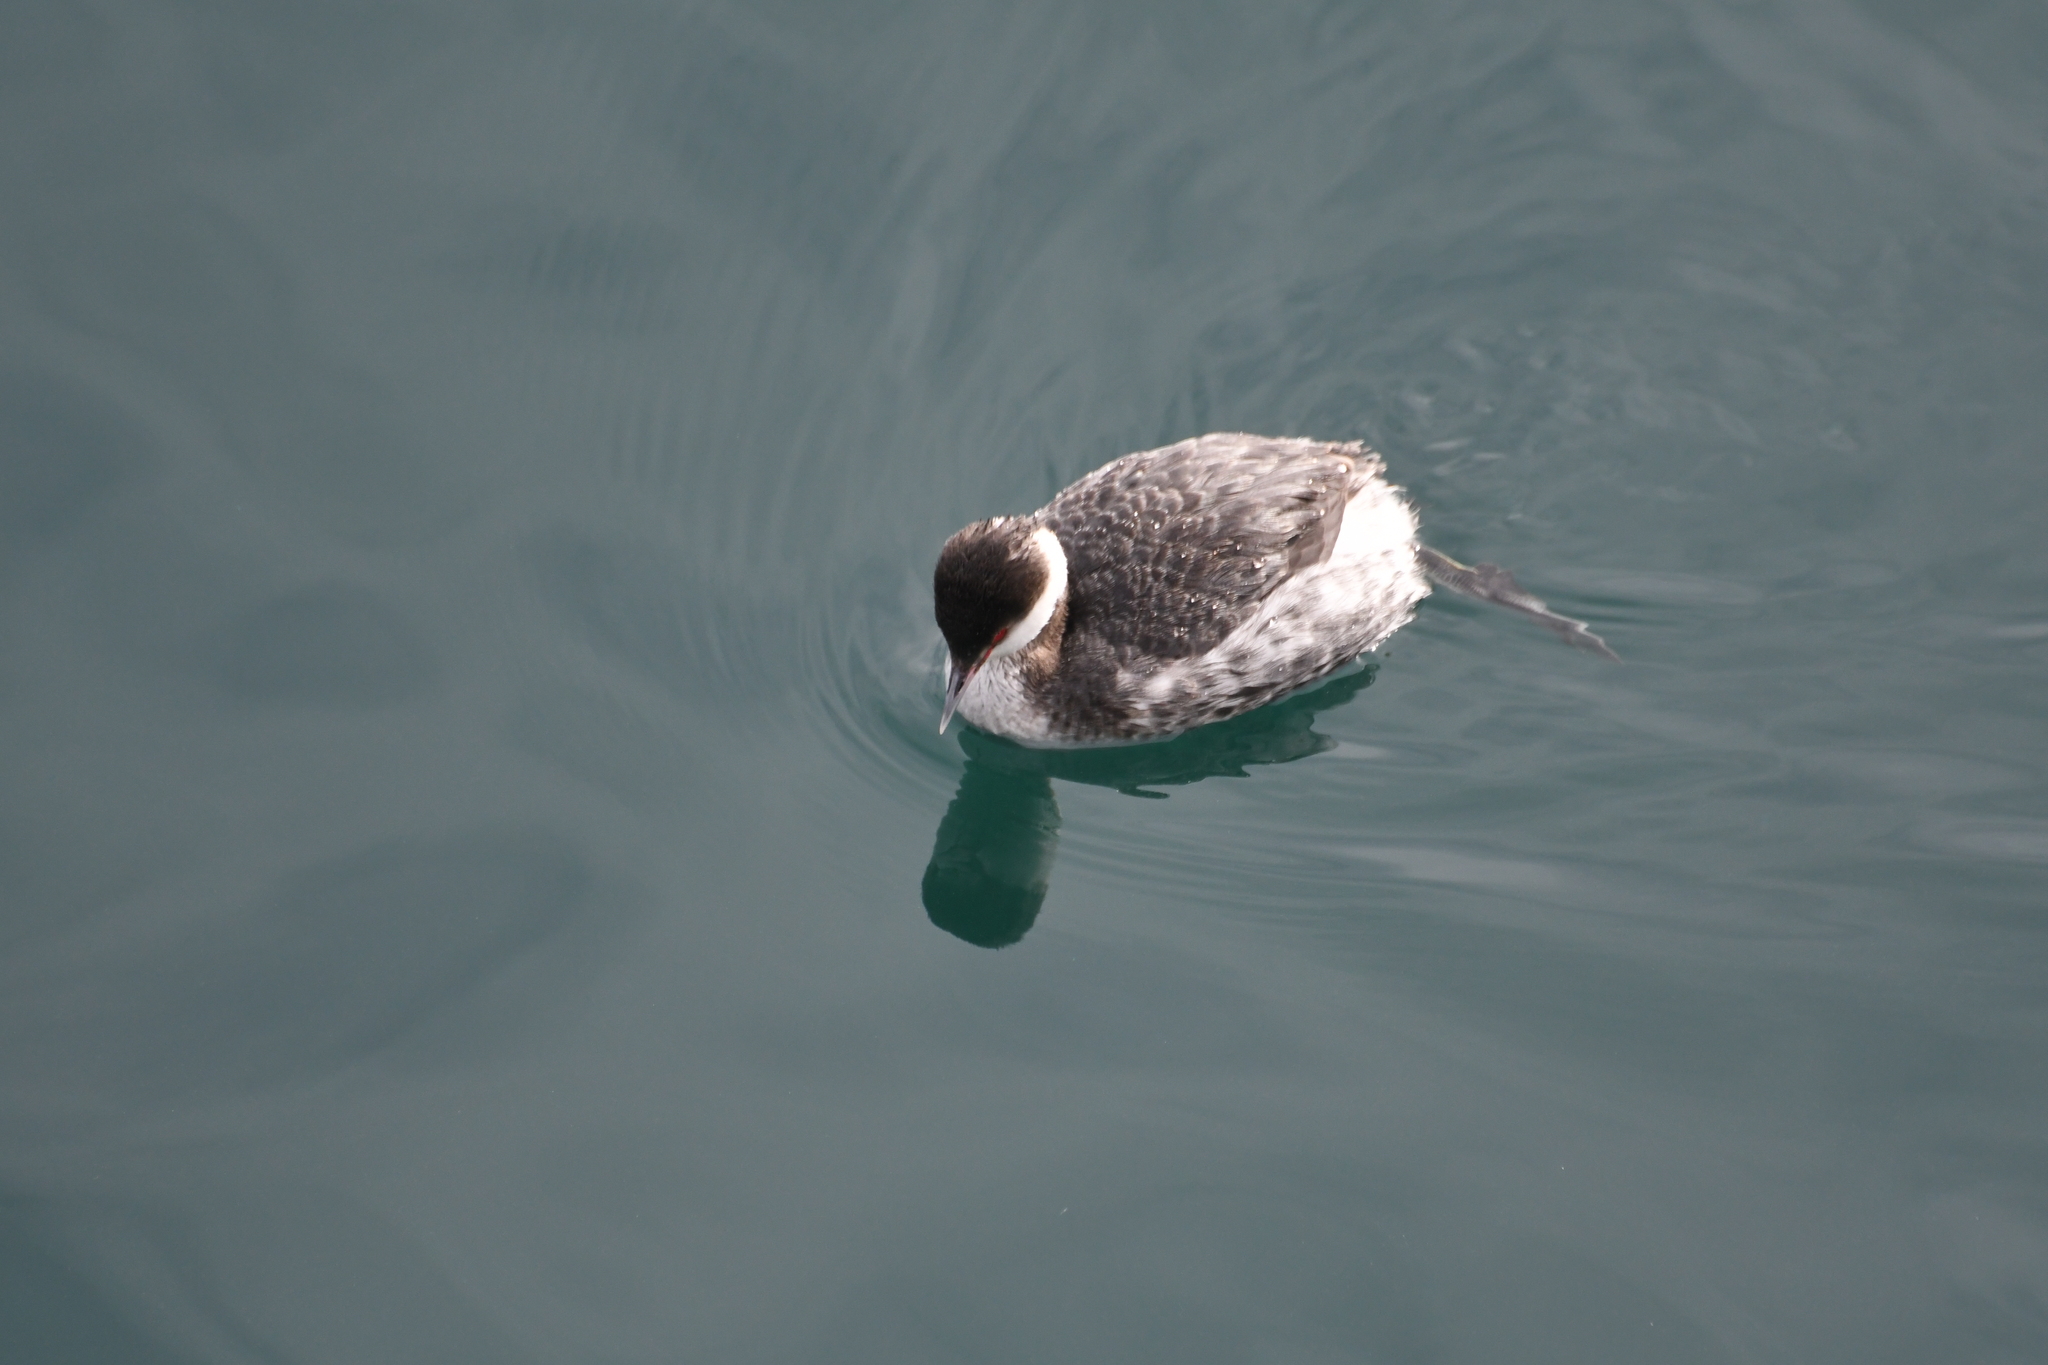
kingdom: Animalia
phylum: Chordata
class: Aves
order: Podicipediformes
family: Podicipedidae
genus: Podiceps
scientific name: Podiceps auritus
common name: Horned grebe
